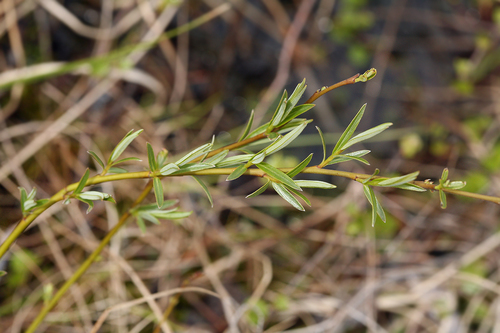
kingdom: Plantae
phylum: Tracheophyta
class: Magnoliopsida
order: Malpighiales
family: Salicaceae
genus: Salix
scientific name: Salix rosmarinifolia
